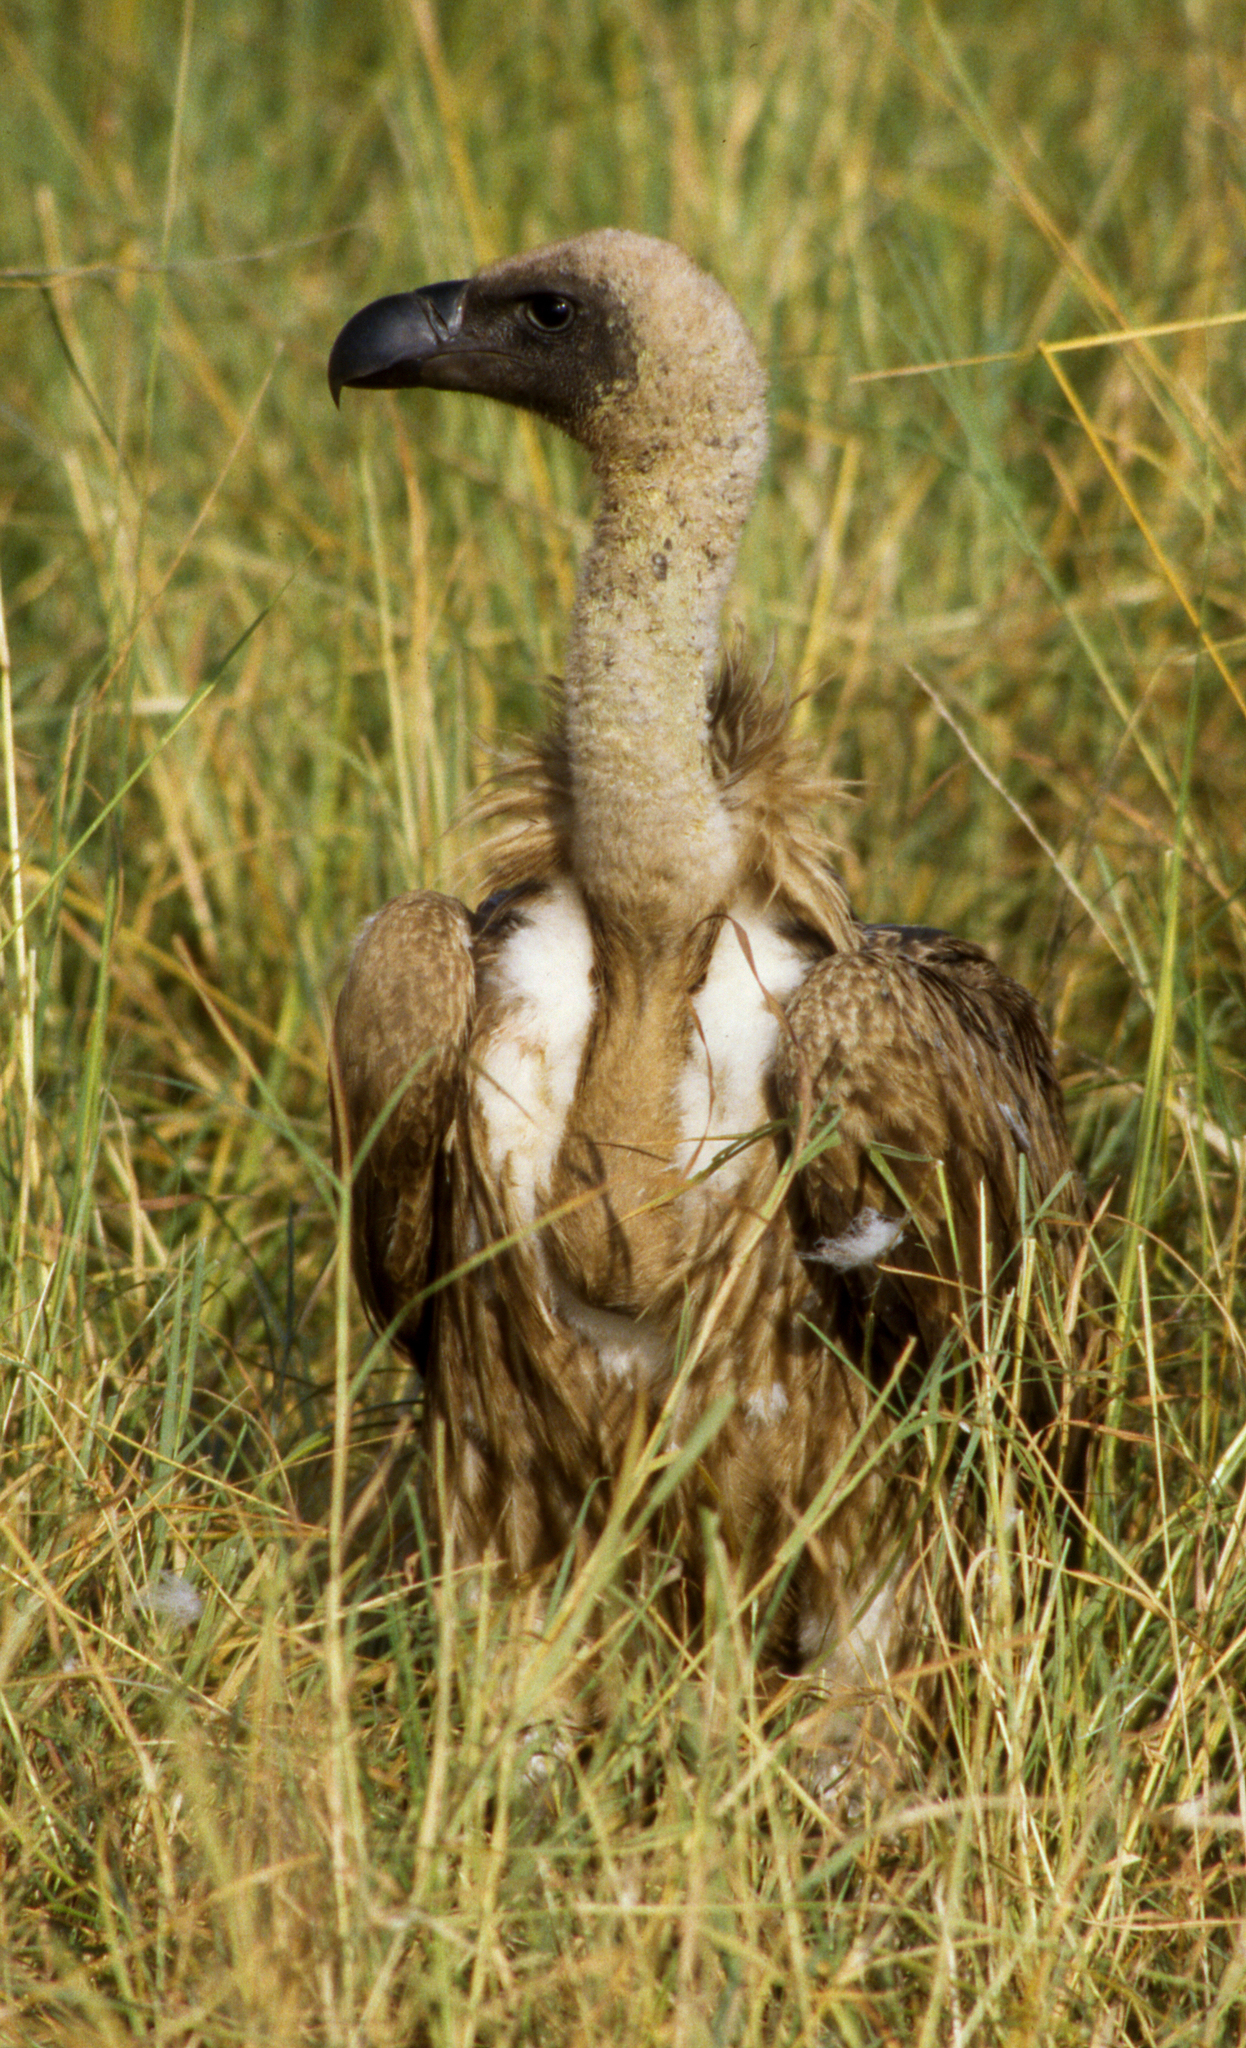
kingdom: Animalia
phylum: Chordata
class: Aves
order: Accipitriformes
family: Accipitridae
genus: Gyps
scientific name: Gyps africanus
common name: White-backed vulture
